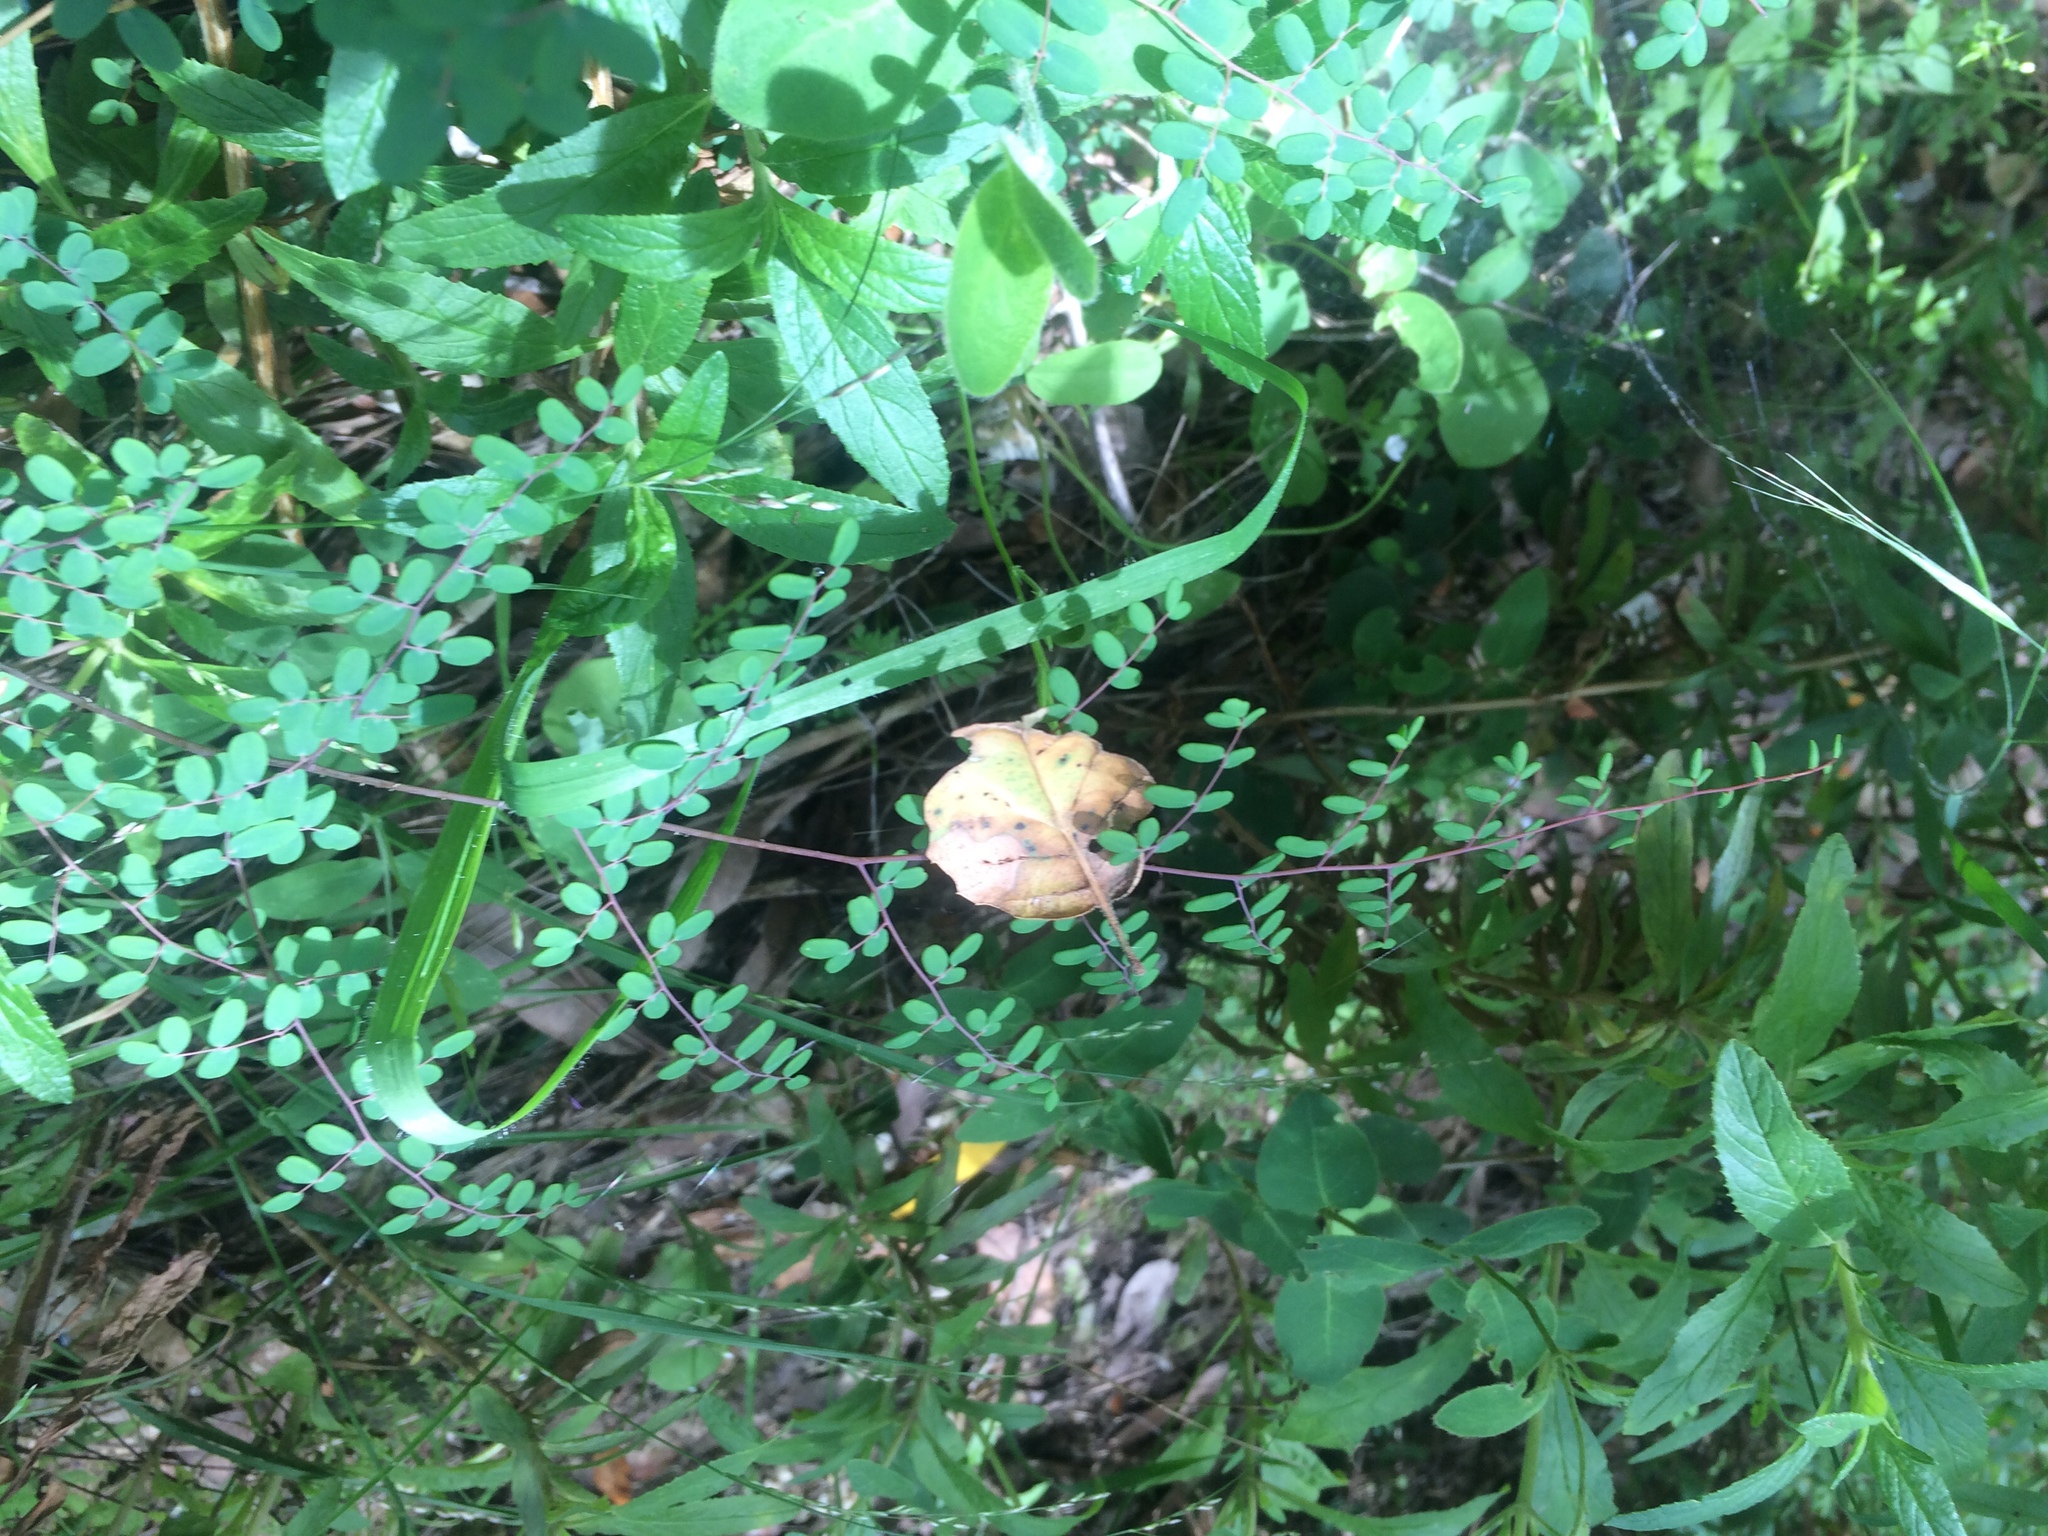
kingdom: Plantae
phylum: Tracheophyta
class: Polypodiopsida
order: Polypodiales
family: Pteridaceae
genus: Pellaea
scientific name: Pellaea andromedifolia
